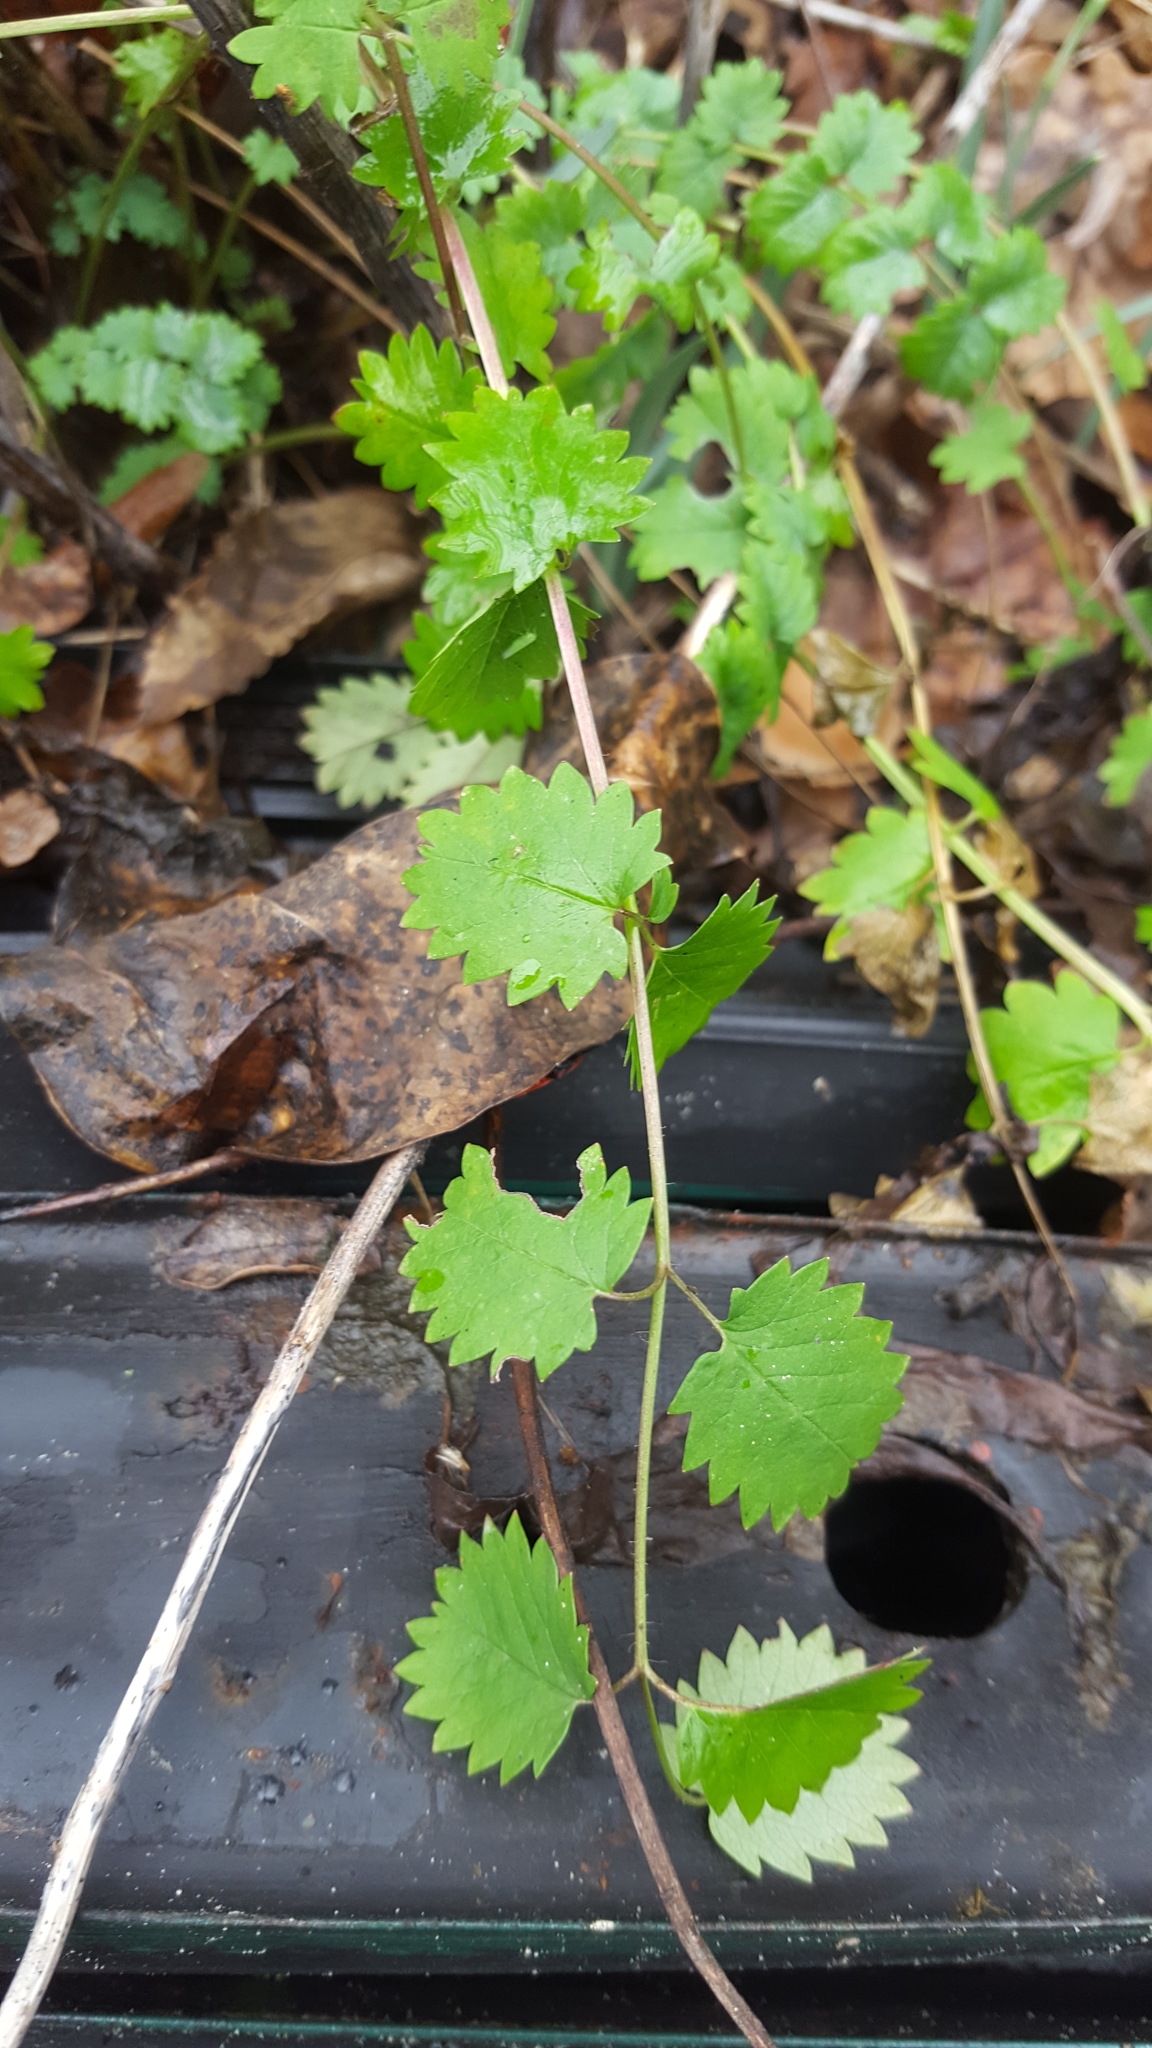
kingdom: Plantae
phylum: Tracheophyta
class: Magnoliopsida
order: Rosales
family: Rosaceae
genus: Poterium
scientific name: Poterium sanguisorba
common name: Salad burnet
